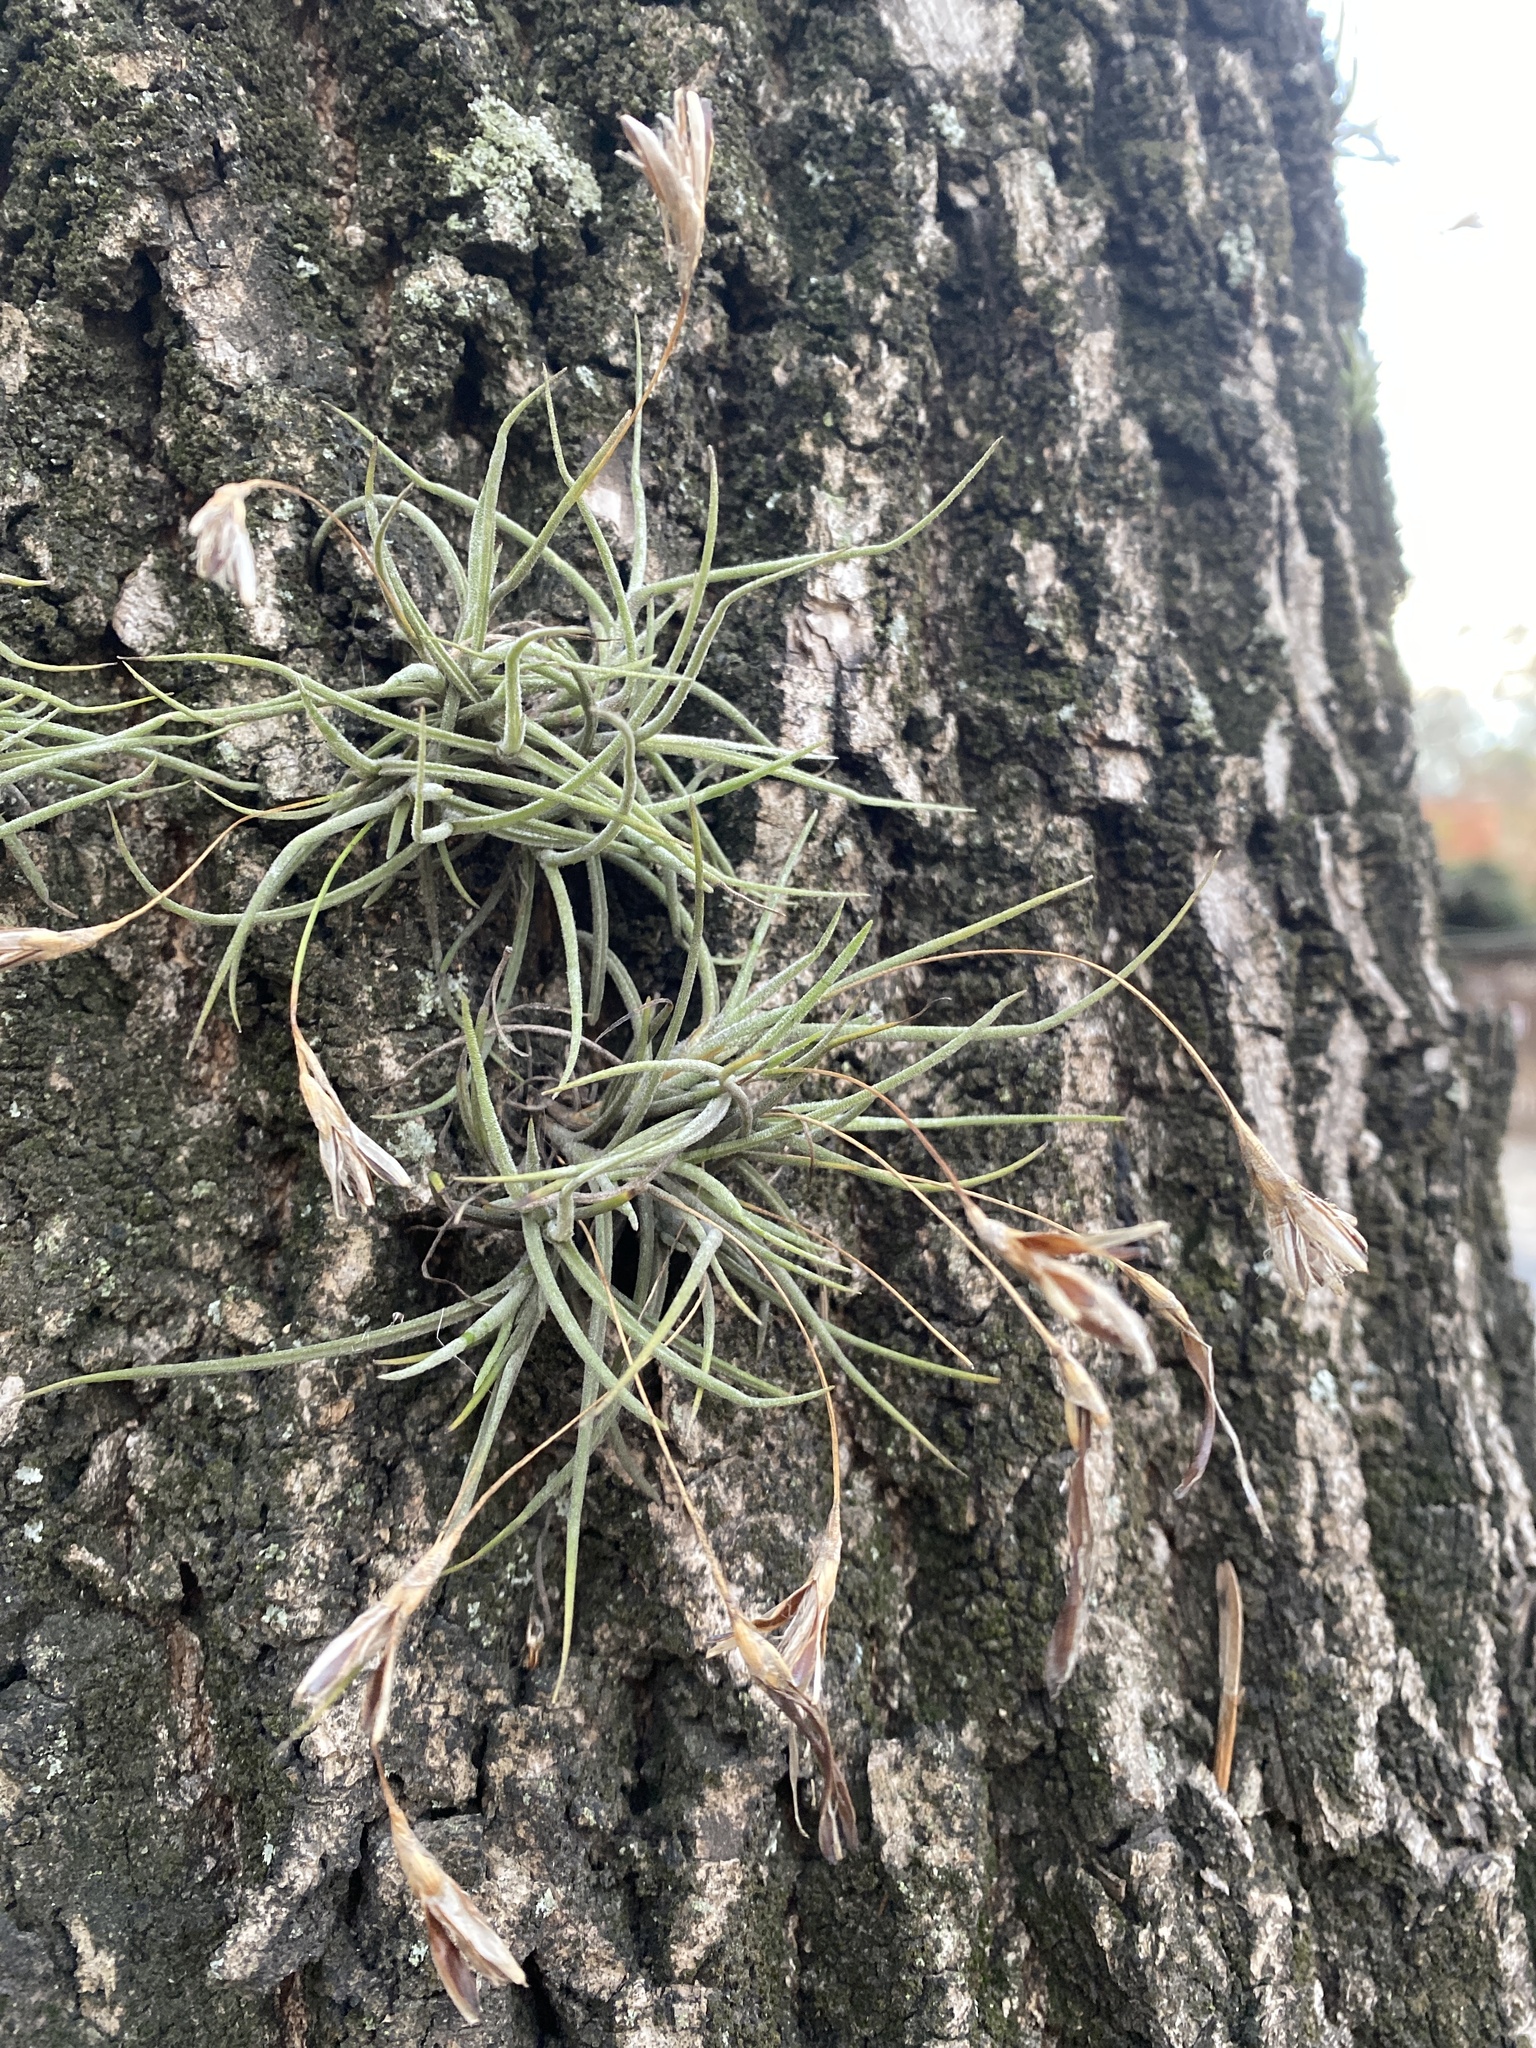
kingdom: Plantae
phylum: Tracheophyta
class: Liliopsida
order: Poales
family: Bromeliaceae
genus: Tillandsia
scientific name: Tillandsia recurvata
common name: Small ballmoss
